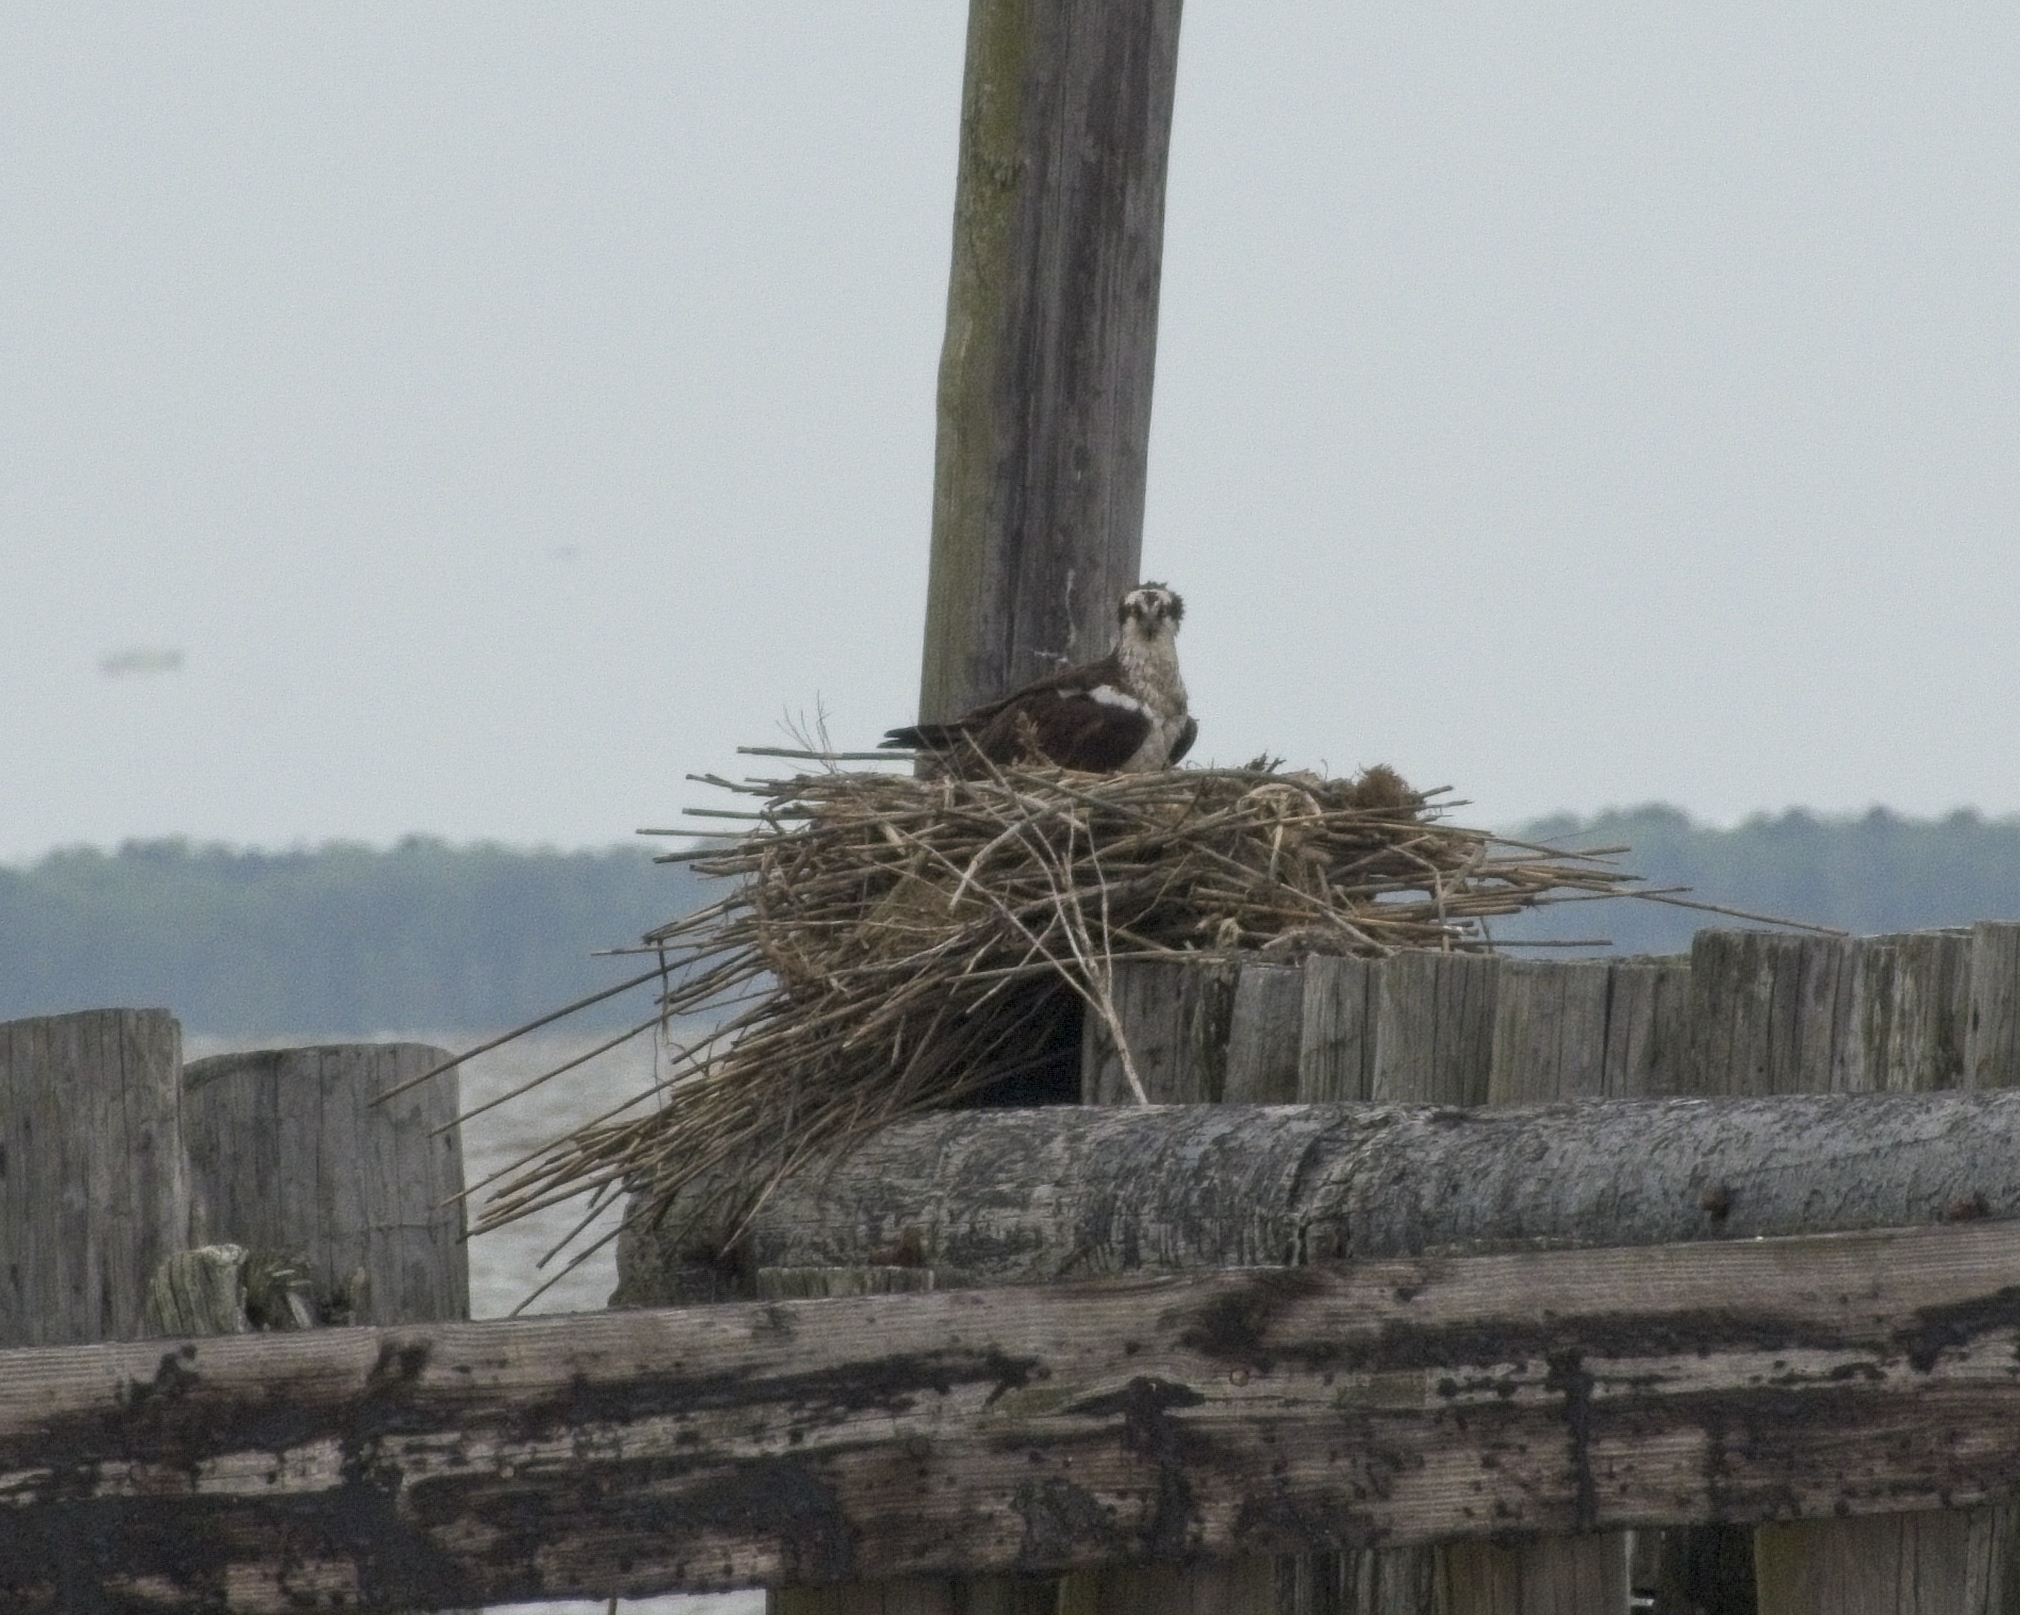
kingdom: Animalia
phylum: Chordata
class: Aves
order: Accipitriformes
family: Pandionidae
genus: Pandion
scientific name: Pandion haliaetus
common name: Osprey
